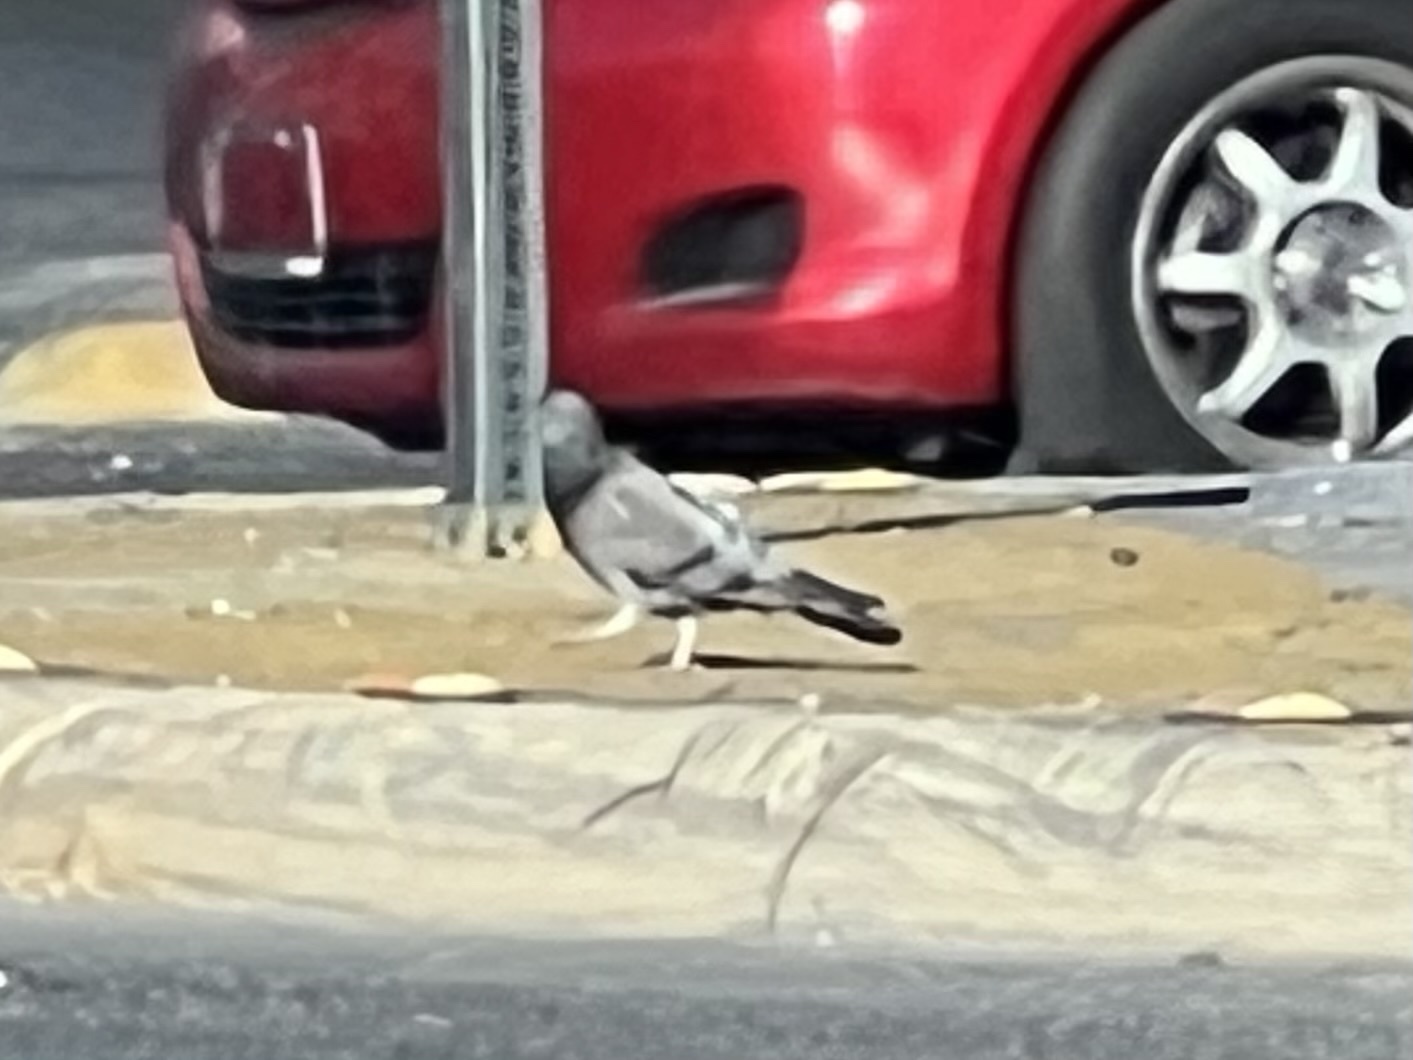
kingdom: Animalia
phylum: Chordata
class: Aves
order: Columbiformes
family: Columbidae
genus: Columba
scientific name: Columba livia
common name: Rock pigeon
